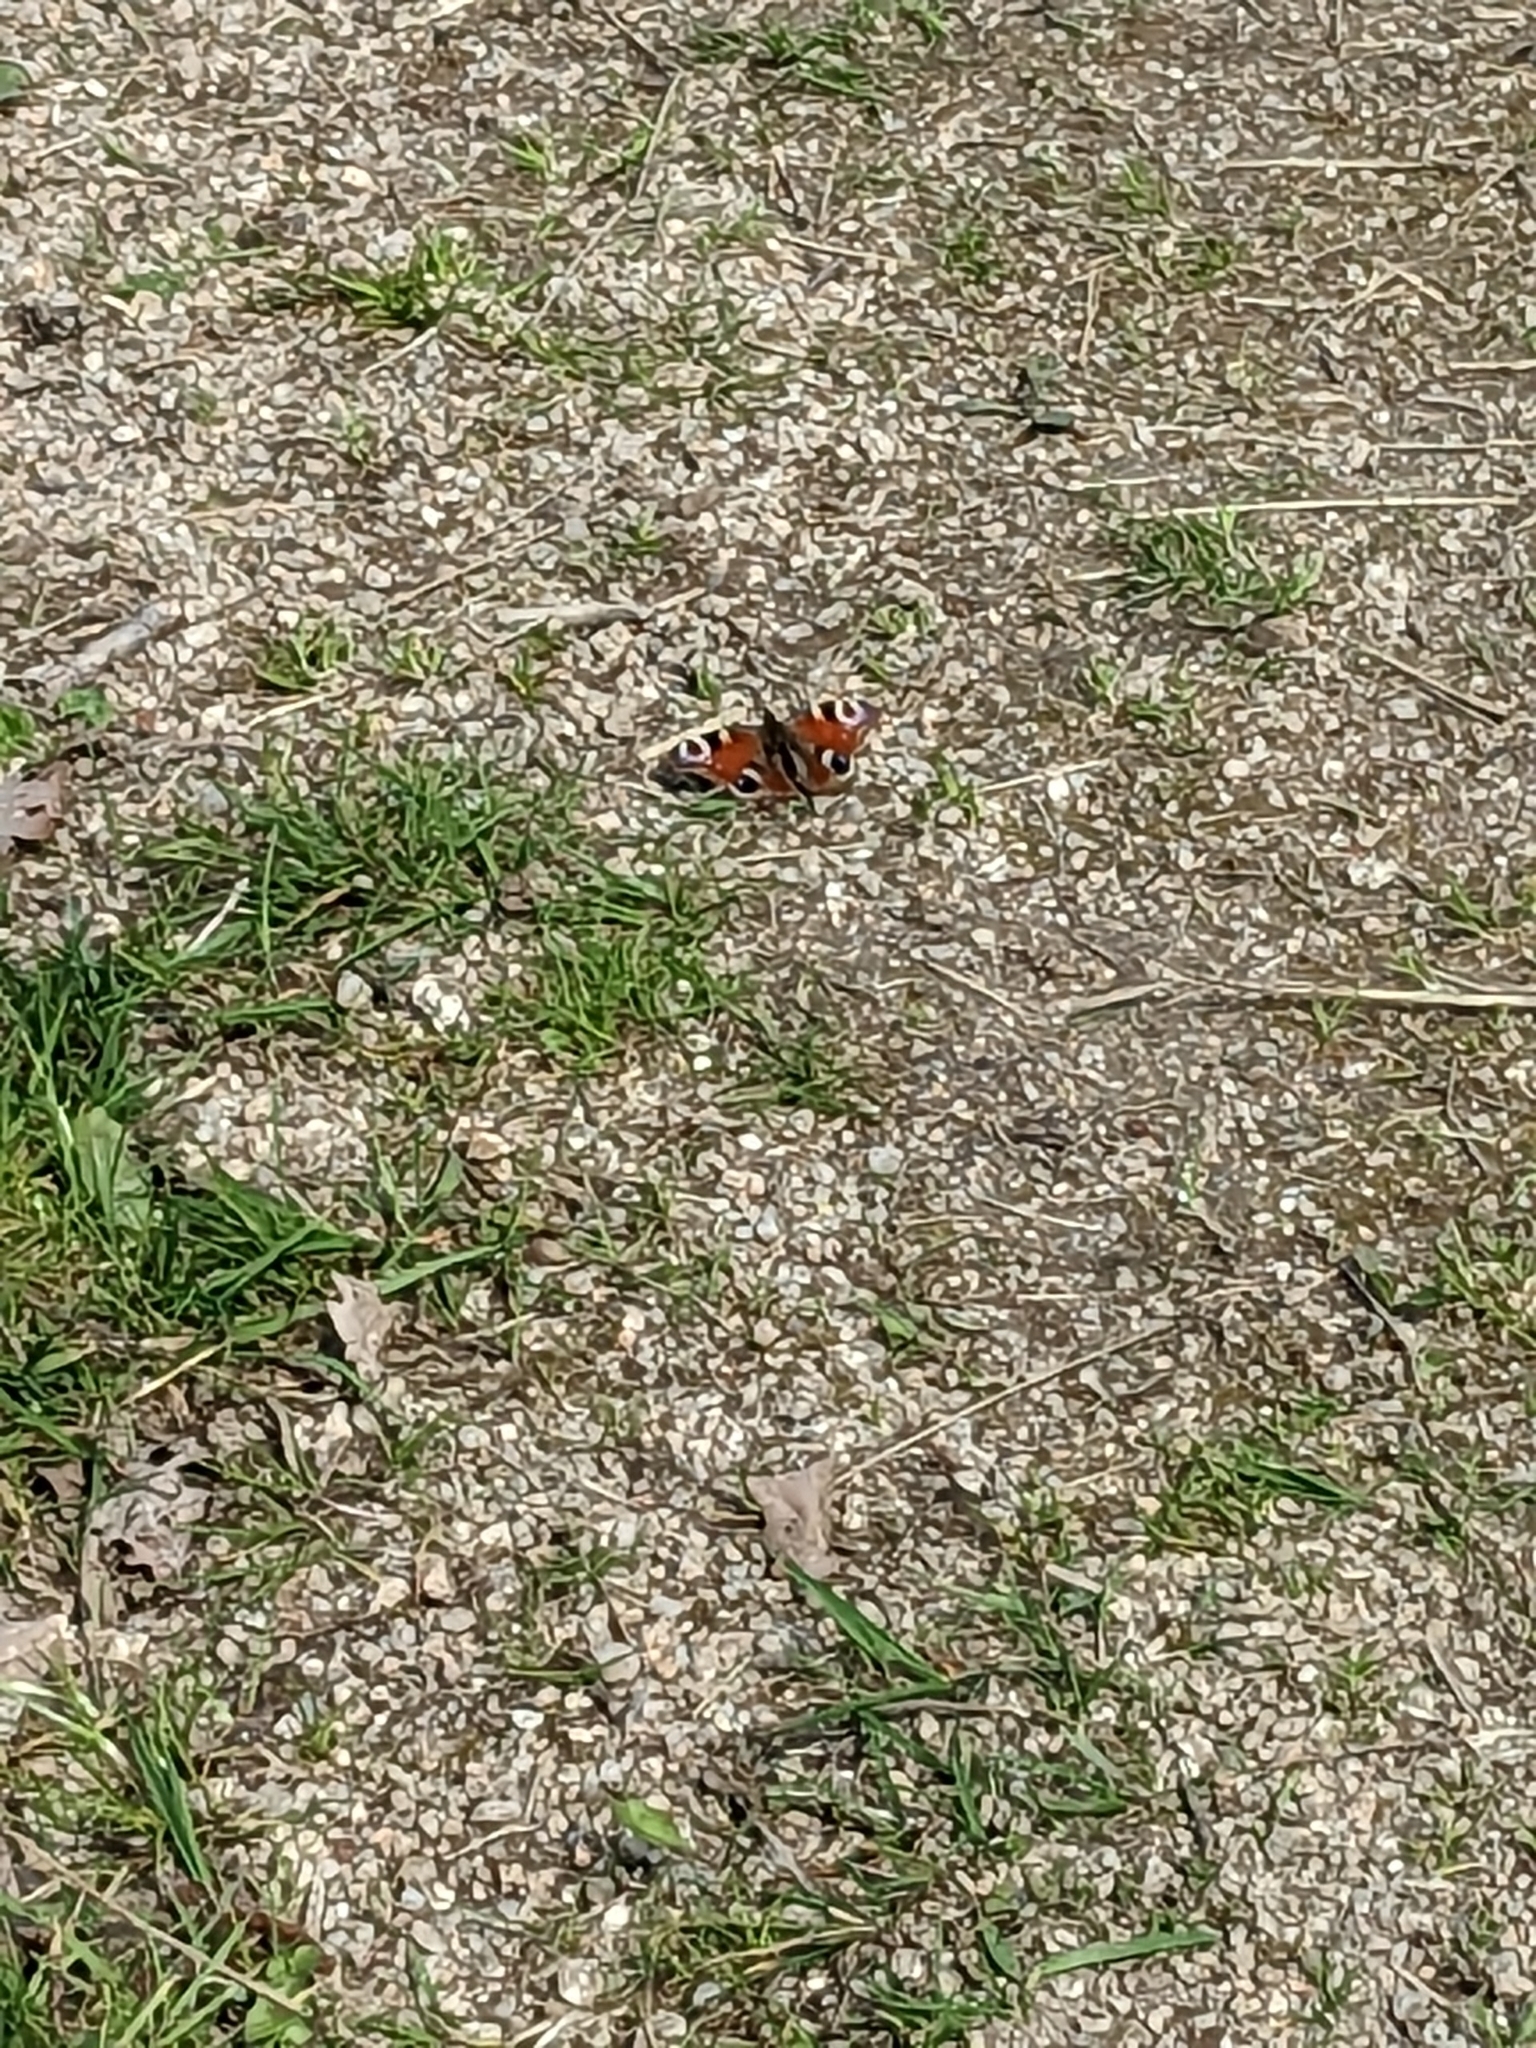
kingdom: Animalia
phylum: Arthropoda
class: Insecta
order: Lepidoptera
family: Nymphalidae
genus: Aglais
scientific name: Aglais io
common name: Peacock
